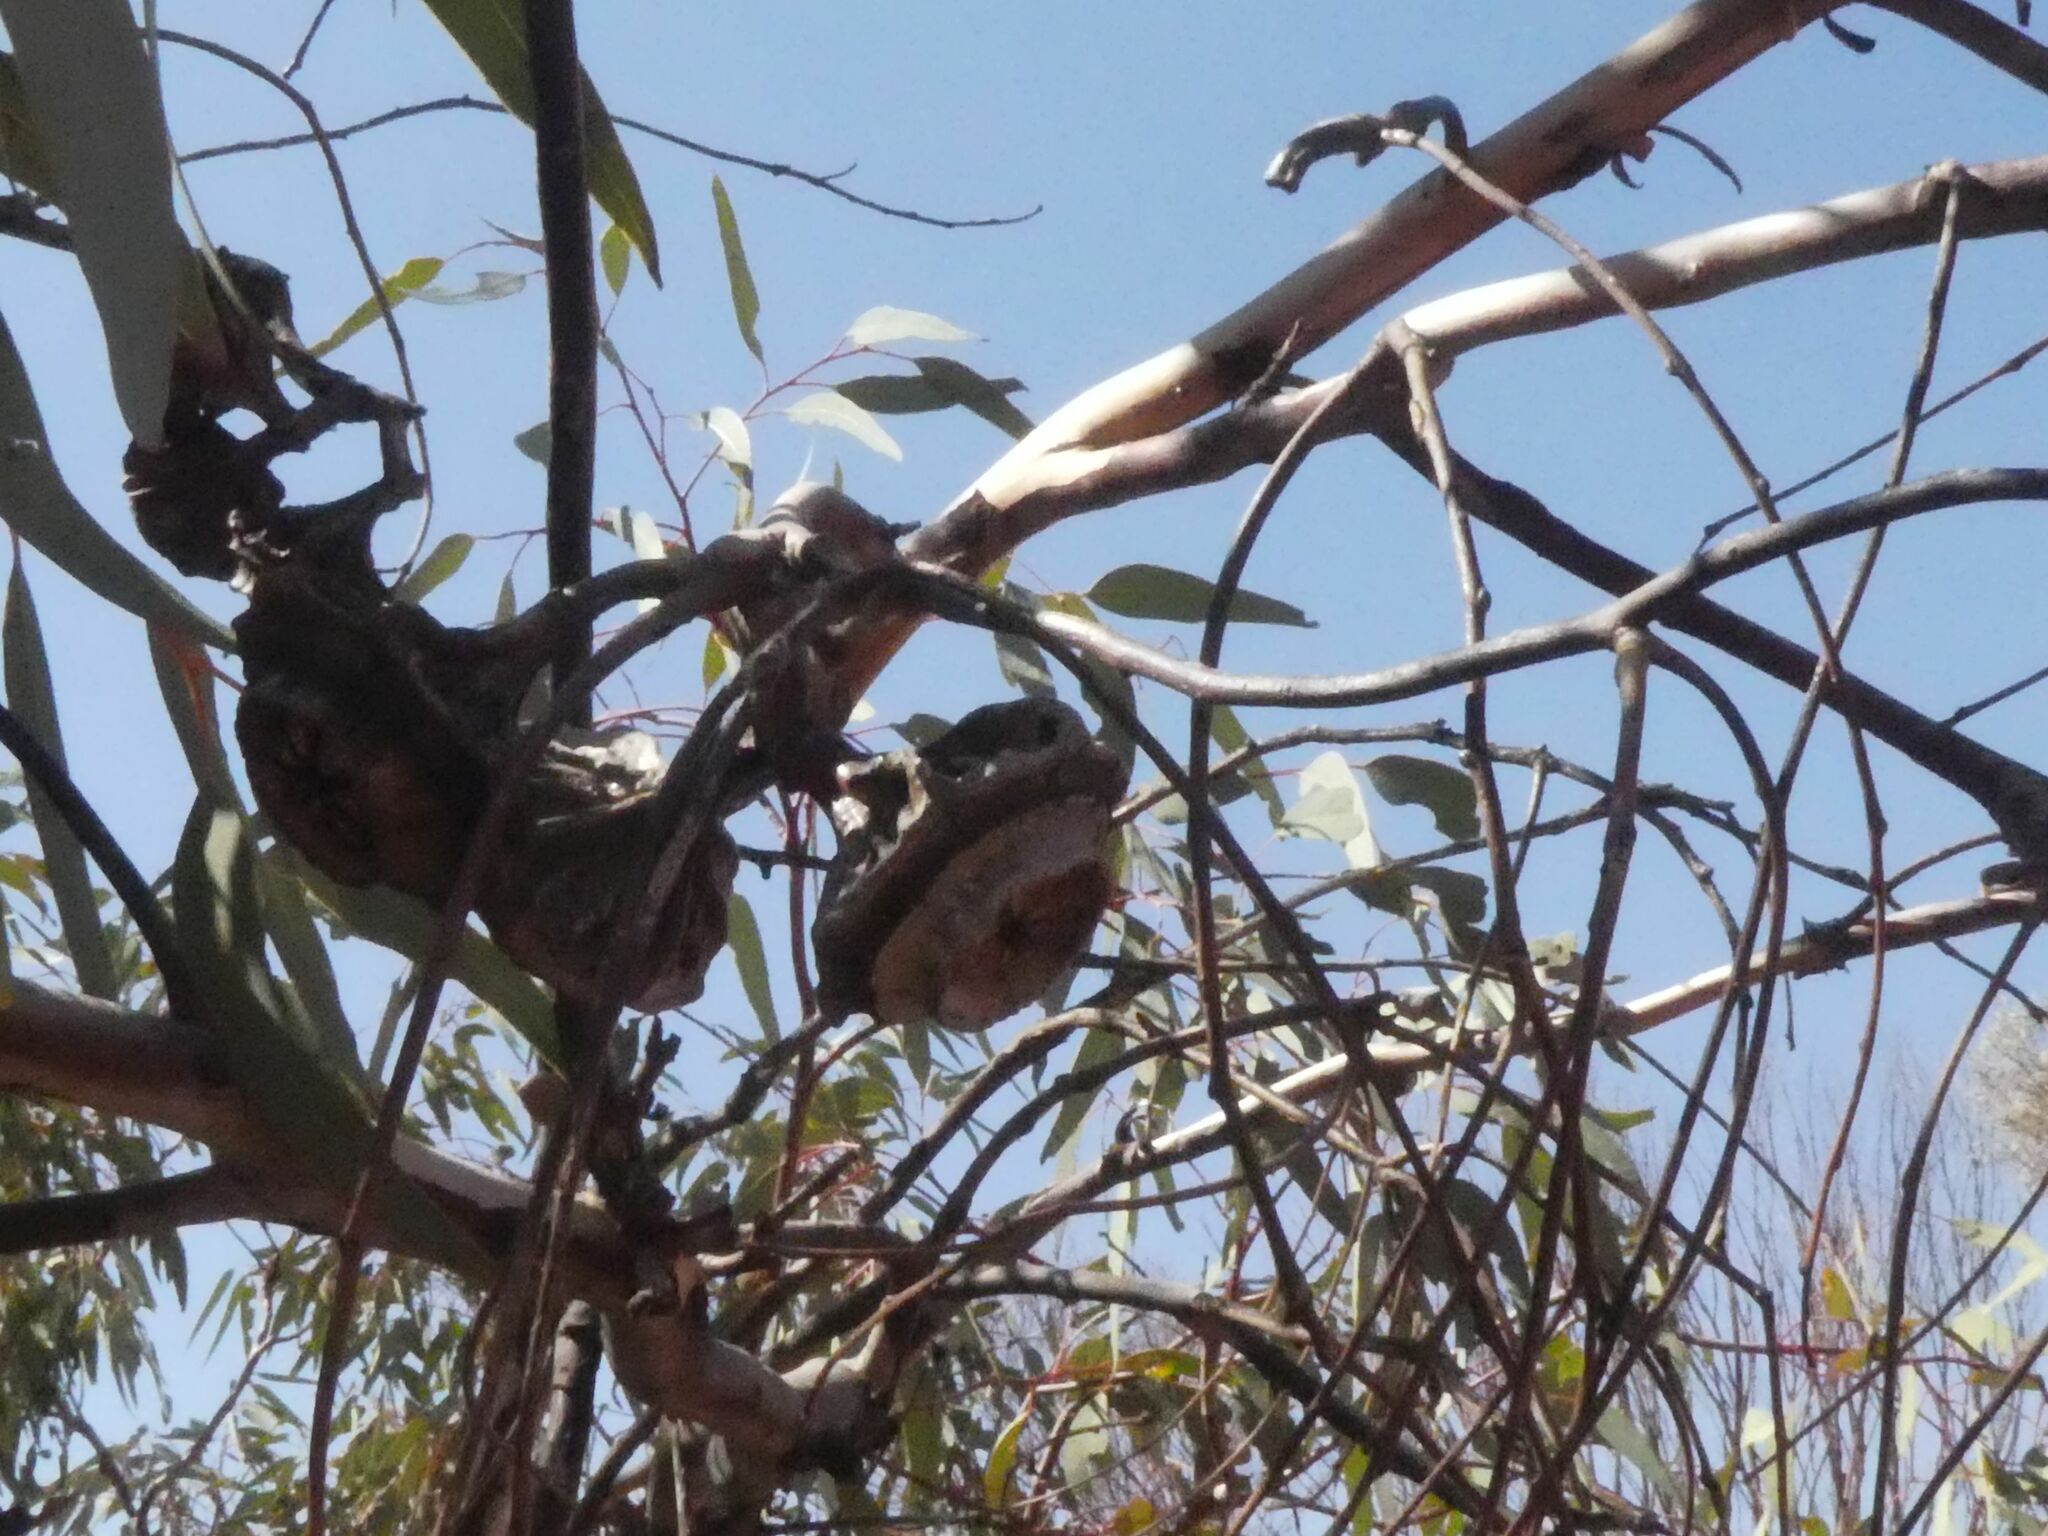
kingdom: Plantae
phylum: Tracheophyta
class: Magnoliopsida
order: Myrtales
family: Myrtaceae
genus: Eucalyptus
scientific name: Eucalyptus youngiana
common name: Large-fruit mallee
